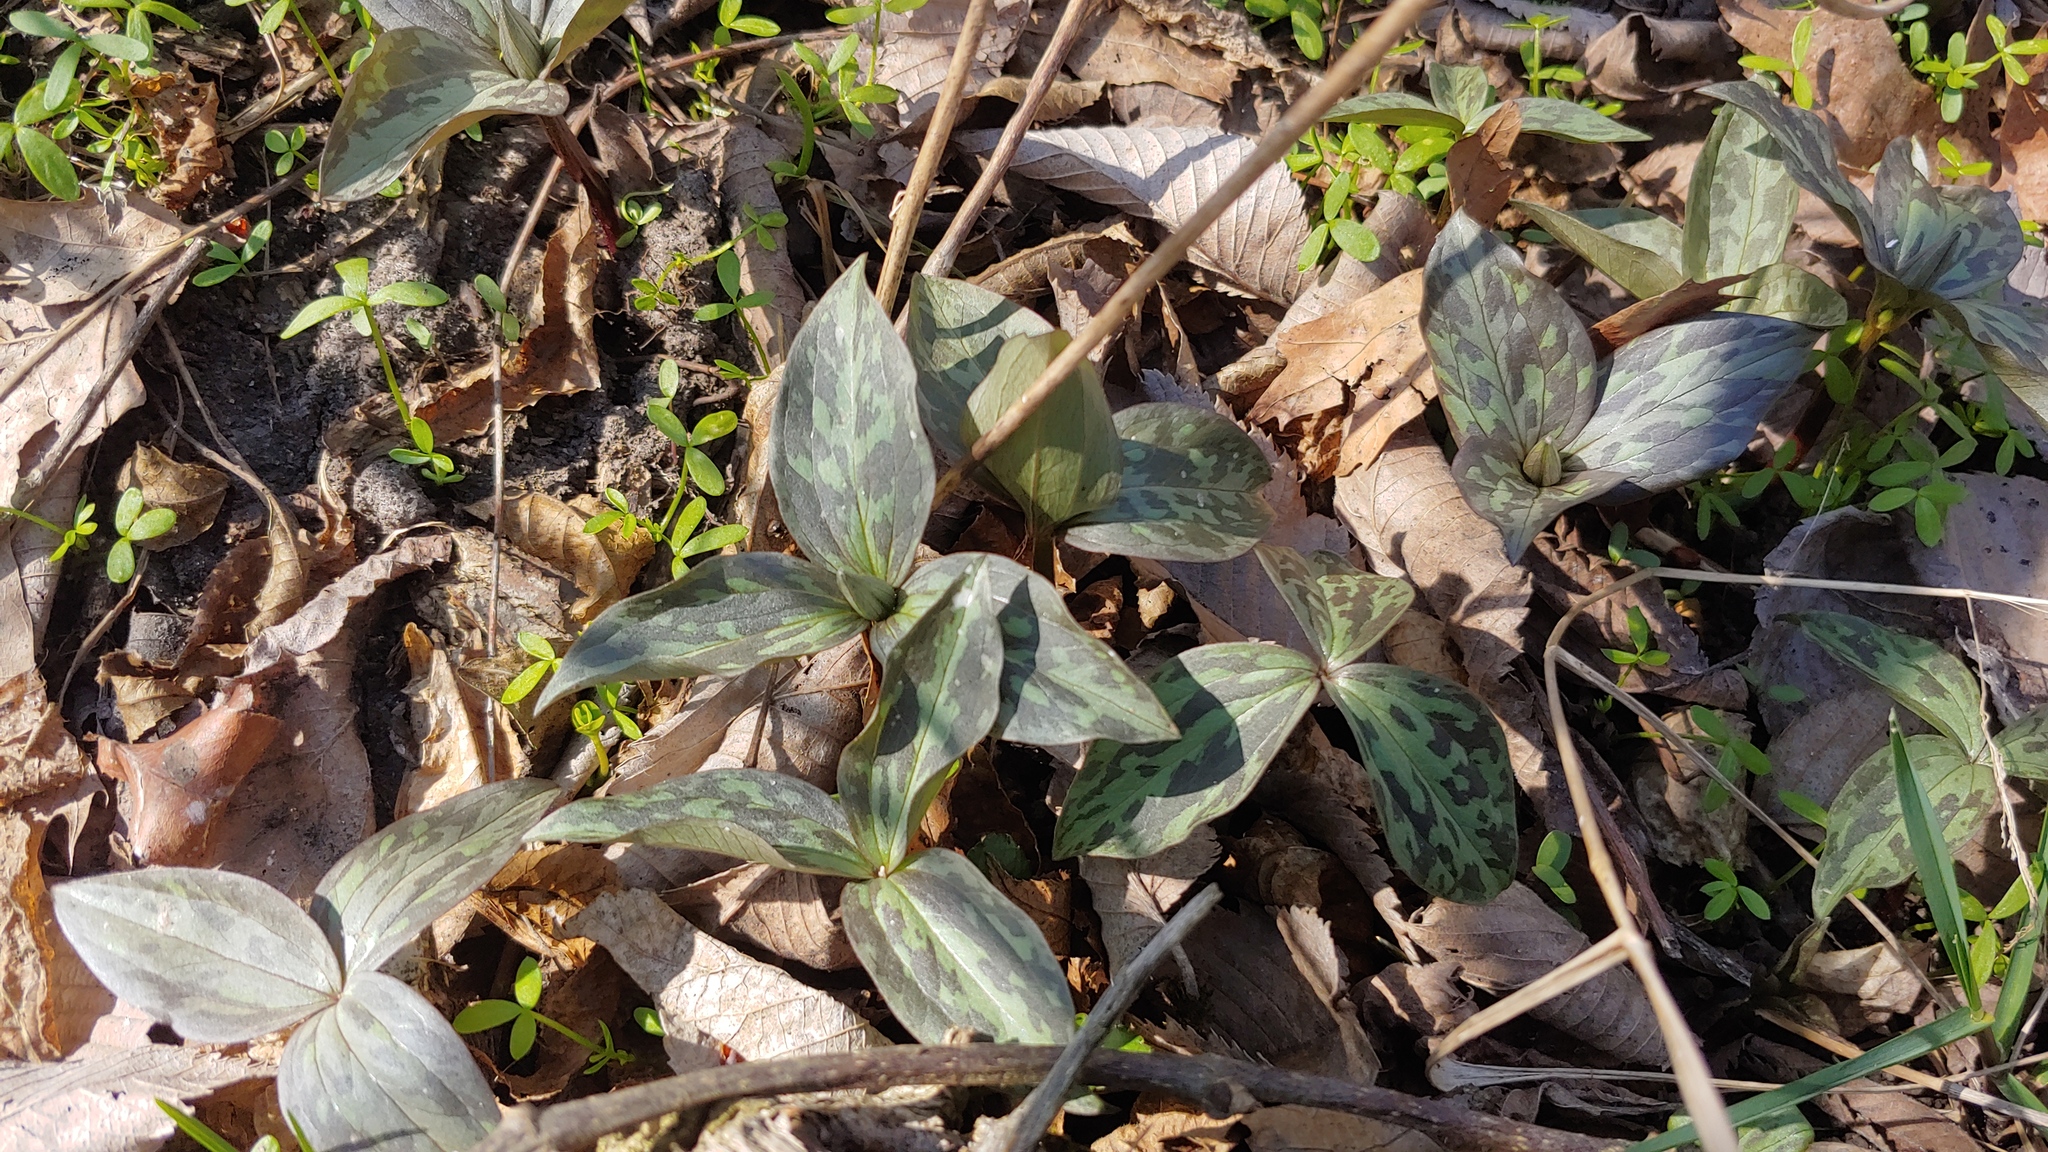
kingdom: Plantae
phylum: Tracheophyta
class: Liliopsida
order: Liliales
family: Melanthiaceae
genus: Trillium
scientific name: Trillium recurvatum
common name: Bloody butcher
